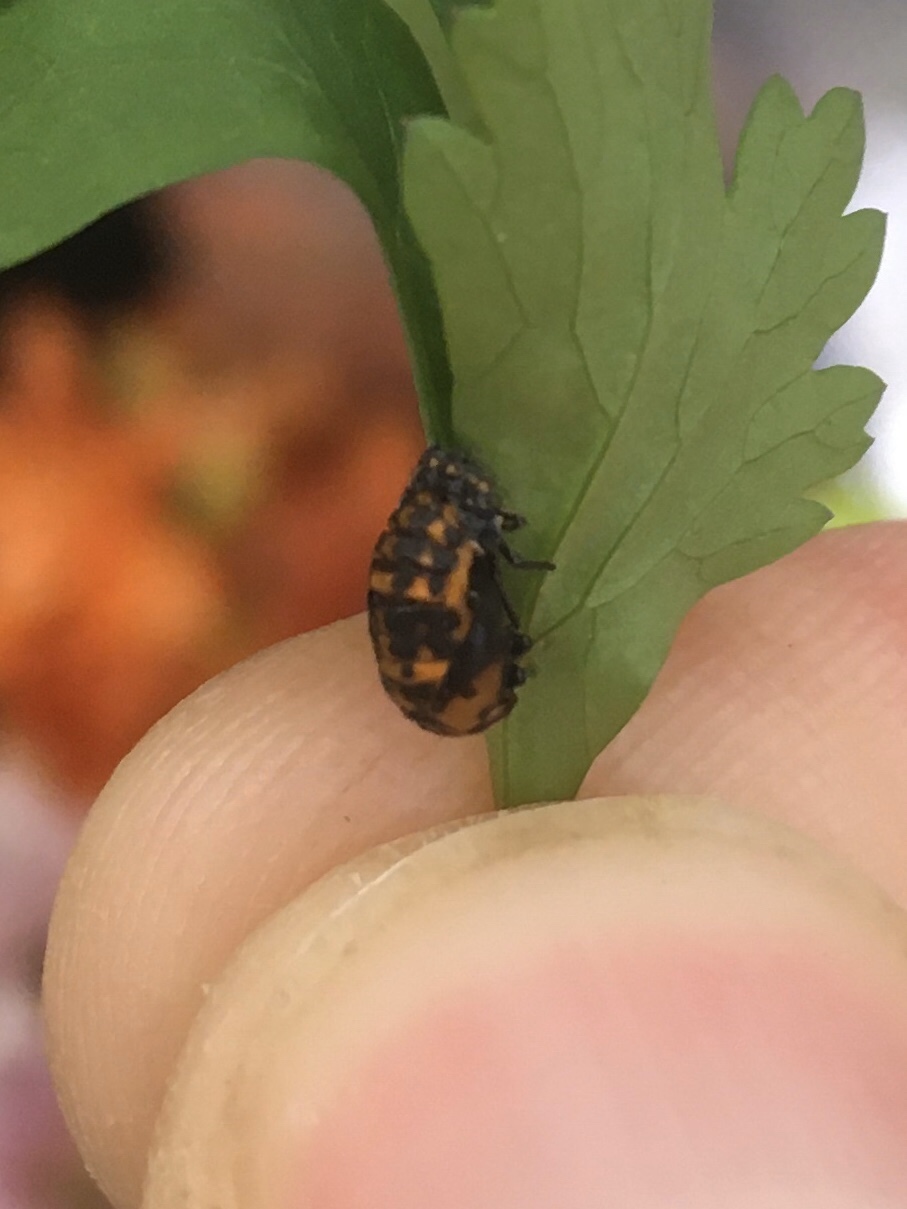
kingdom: Animalia
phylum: Arthropoda
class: Insecta
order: Coleoptera
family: Coccinellidae
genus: Coleomegilla
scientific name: Coleomegilla maculata
